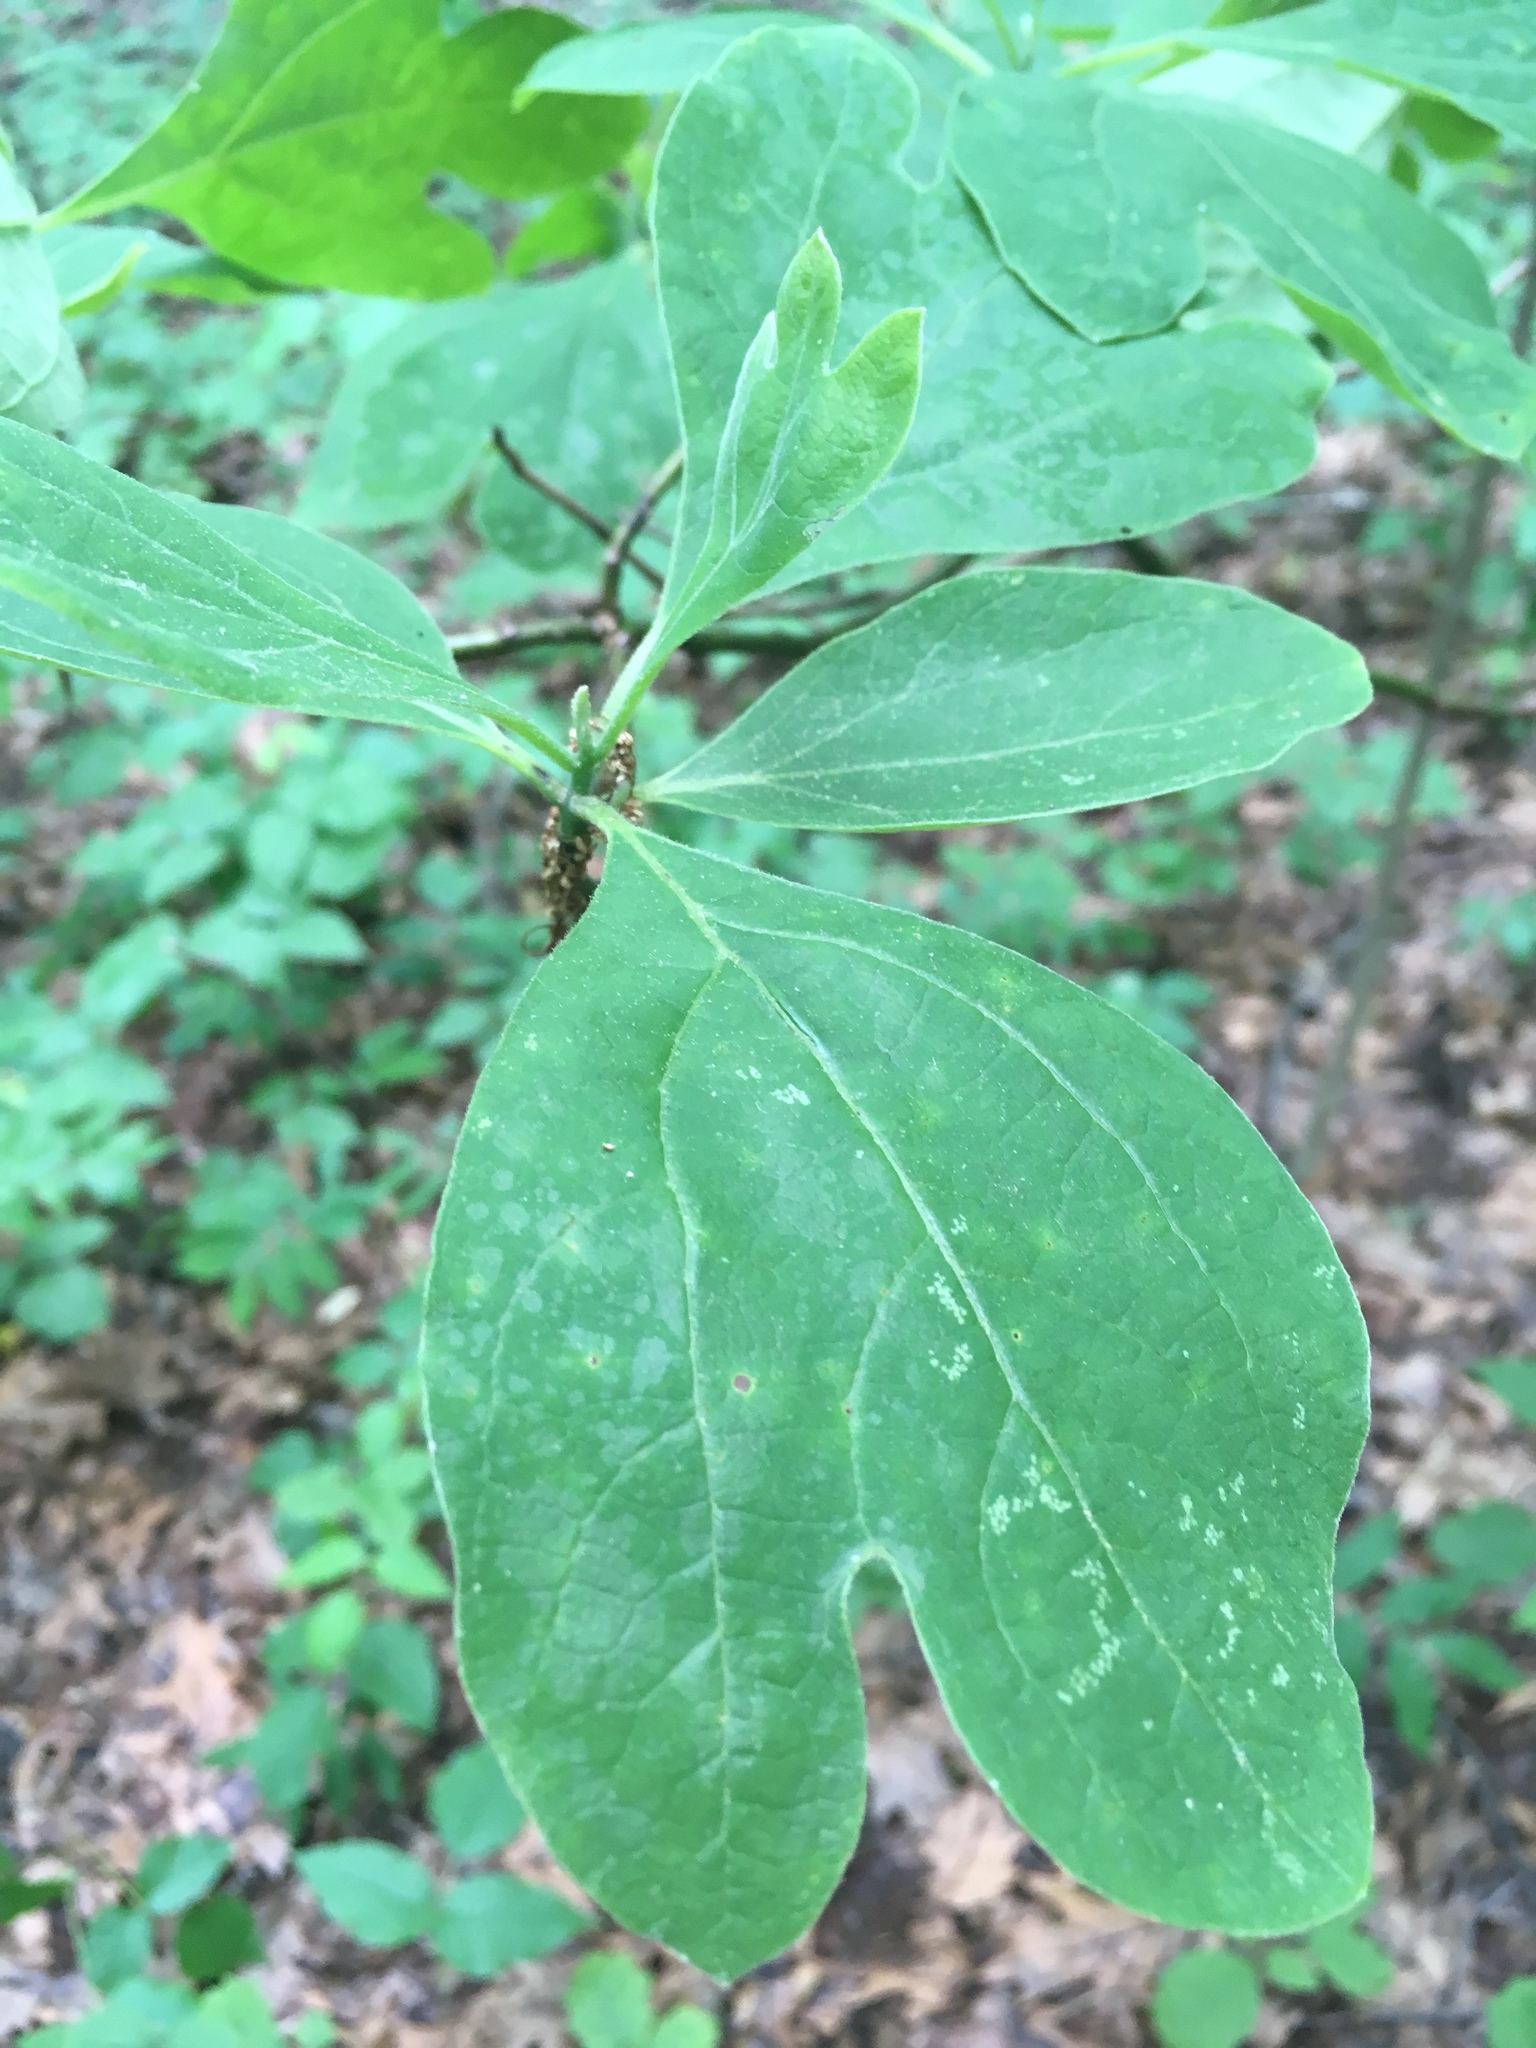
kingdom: Plantae
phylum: Tracheophyta
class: Magnoliopsida
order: Laurales
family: Lauraceae
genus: Sassafras
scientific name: Sassafras albidum
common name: Sassafras
